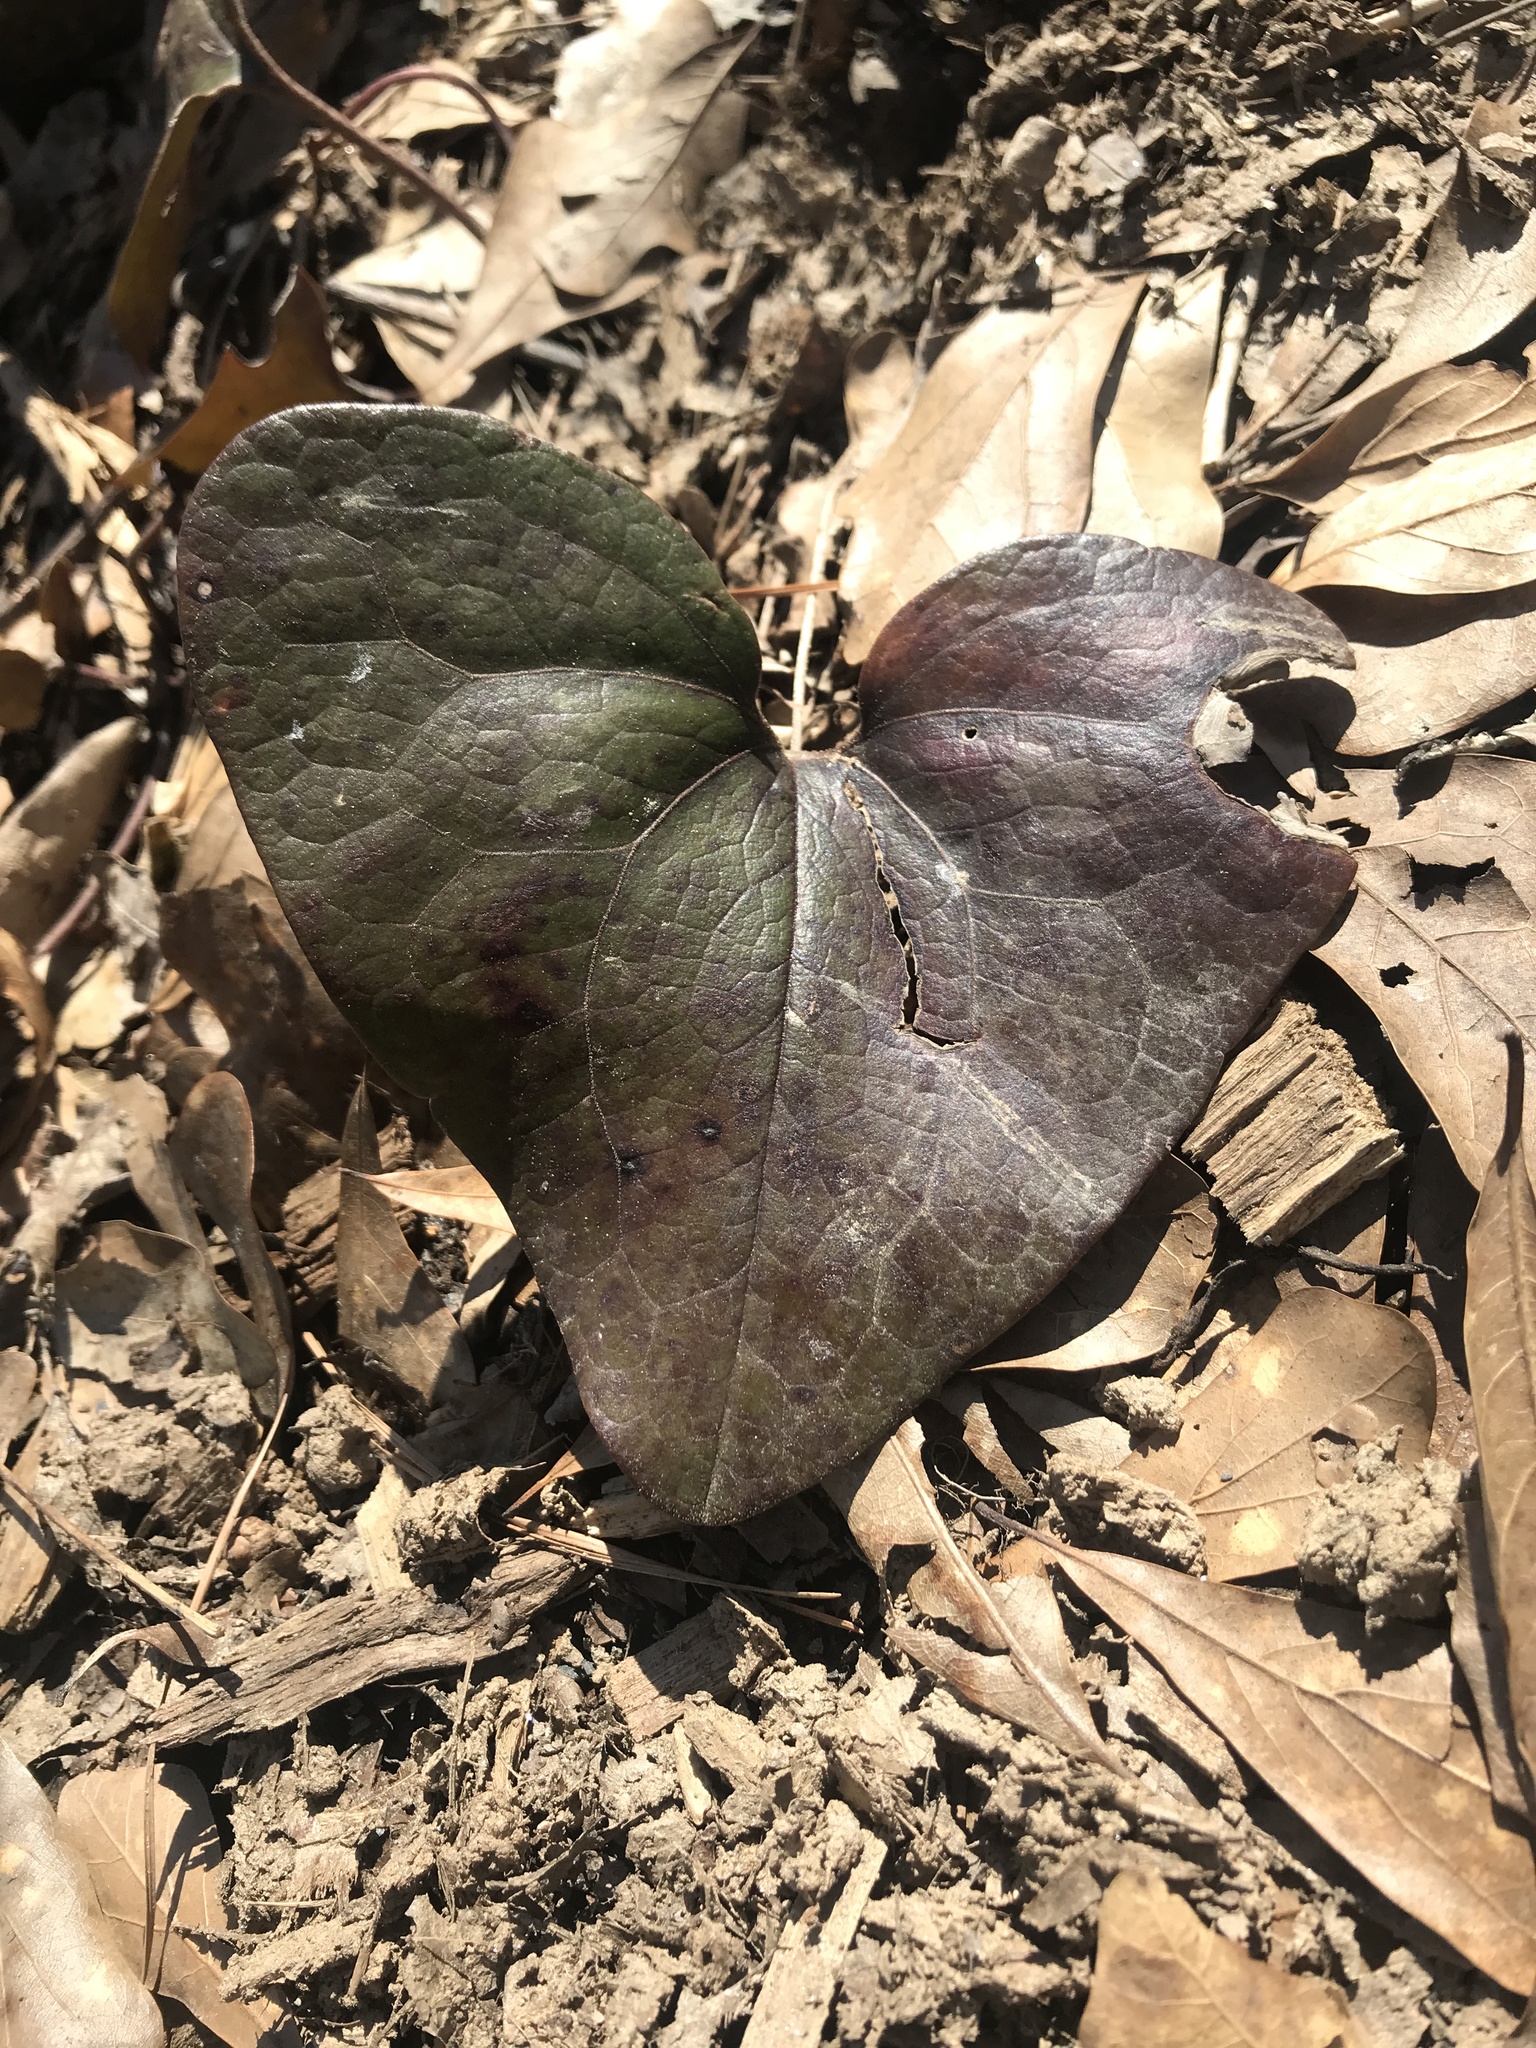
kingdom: Plantae
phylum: Tracheophyta
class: Magnoliopsida
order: Piperales
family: Aristolochiaceae
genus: Hexastylis
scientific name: Hexastylis arifolia
